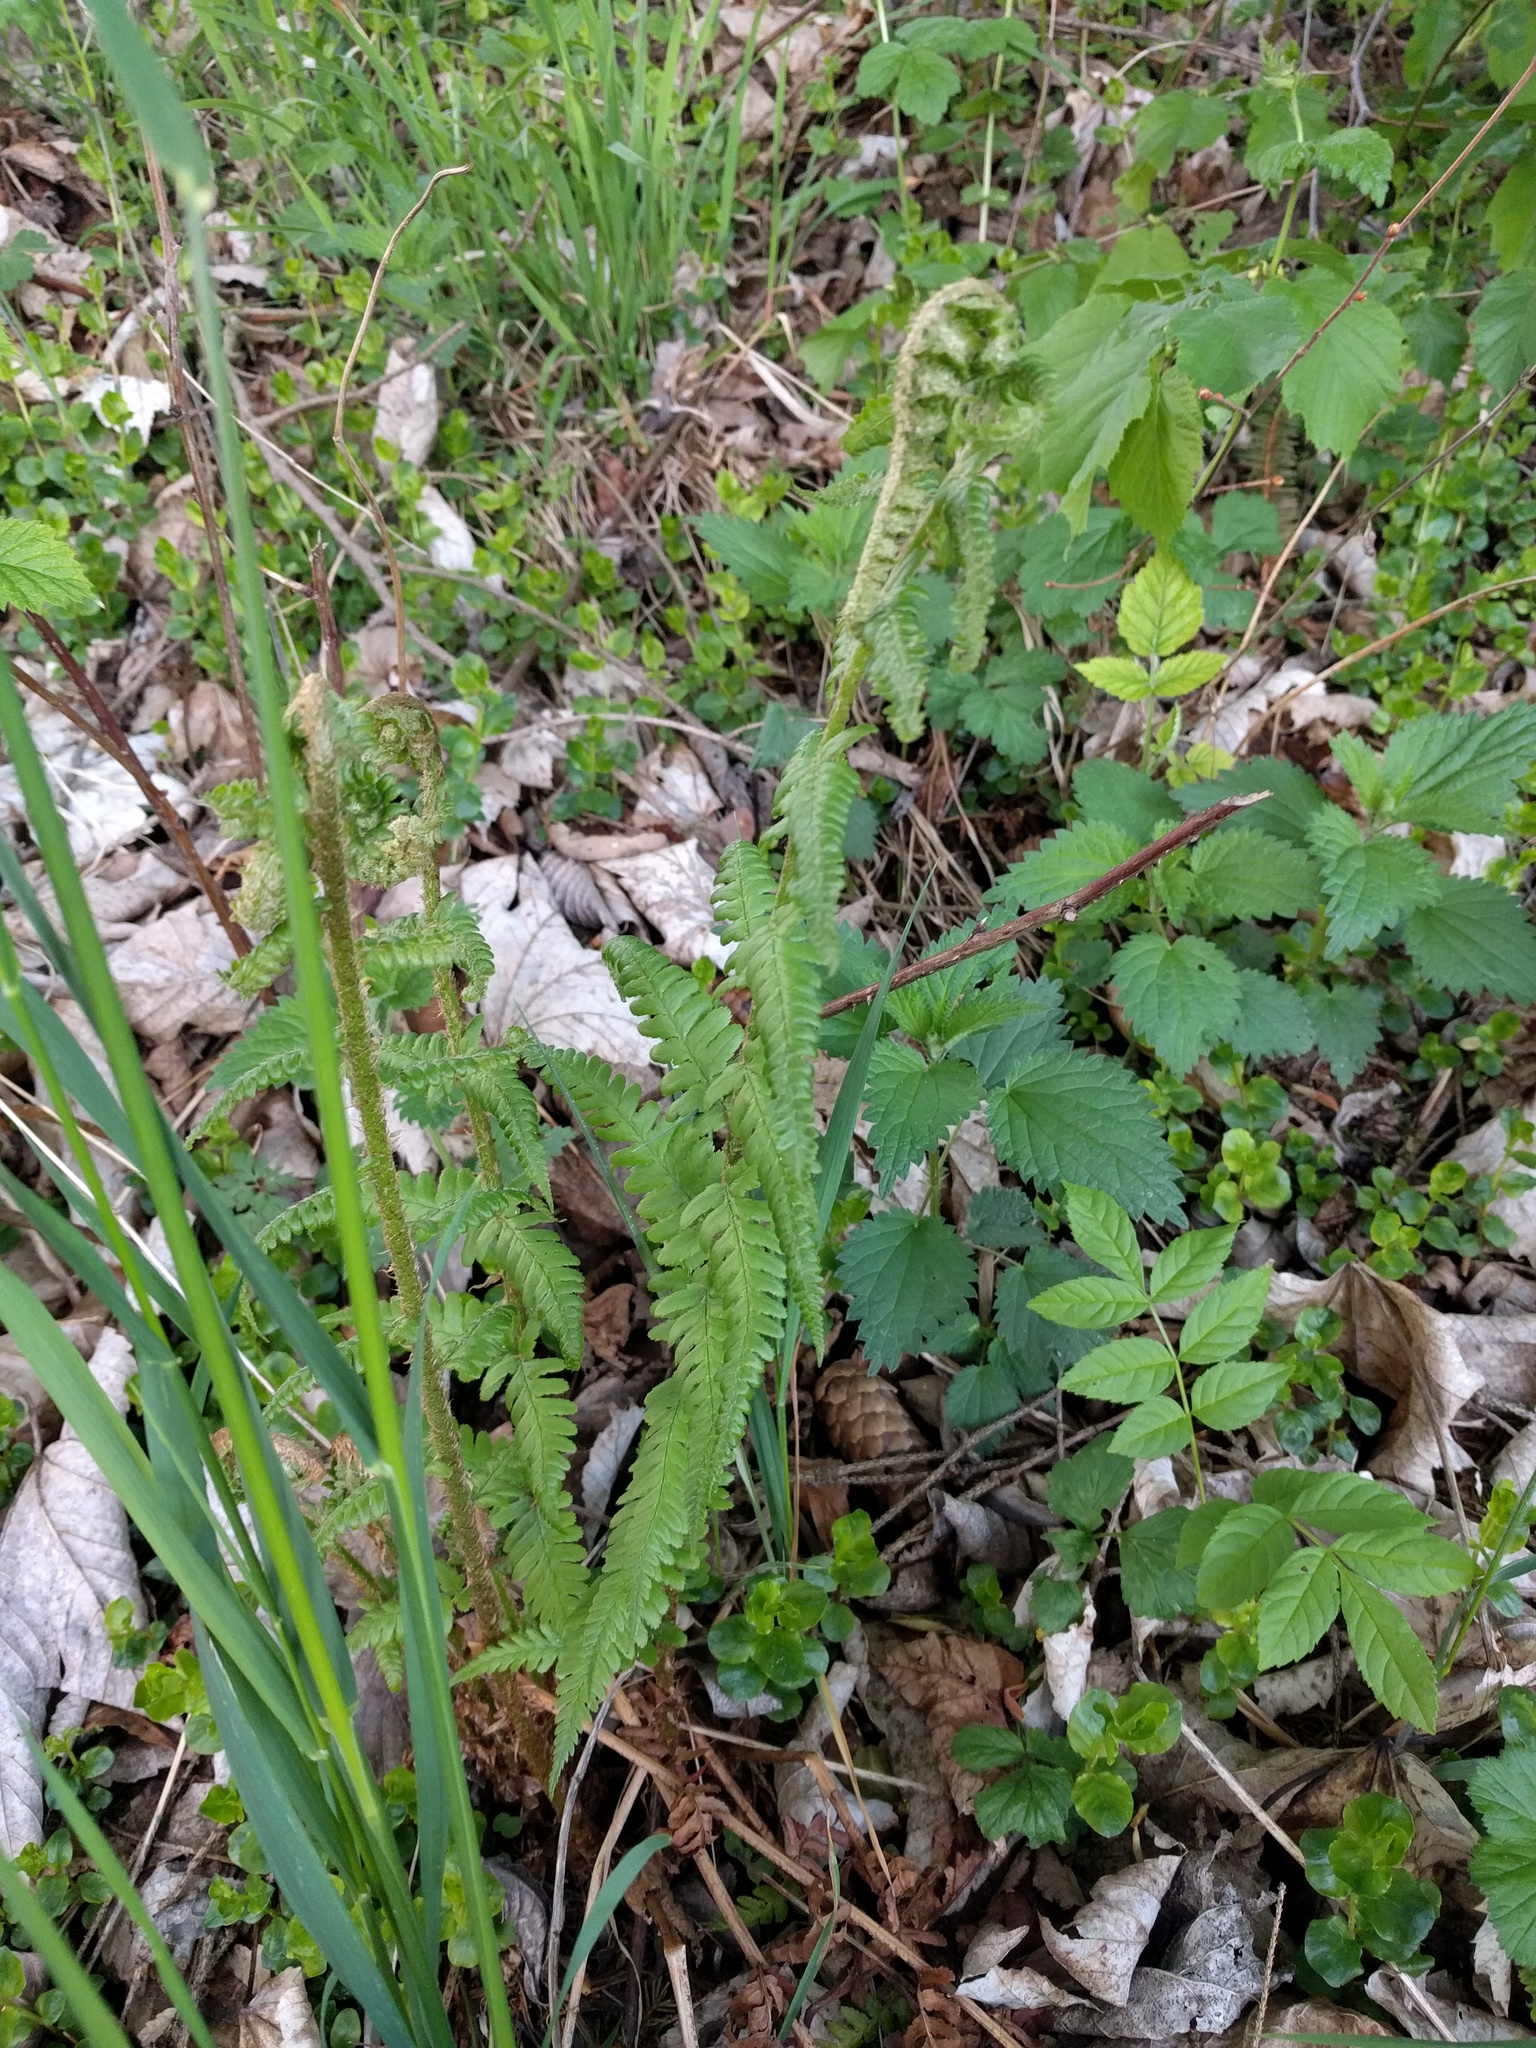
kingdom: Plantae
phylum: Tracheophyta
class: Polypodiopsida
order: Polypodiales
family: Dryopteridaceae
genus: Dryopteris
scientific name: Dryopteris filix-mas
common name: Male fern
